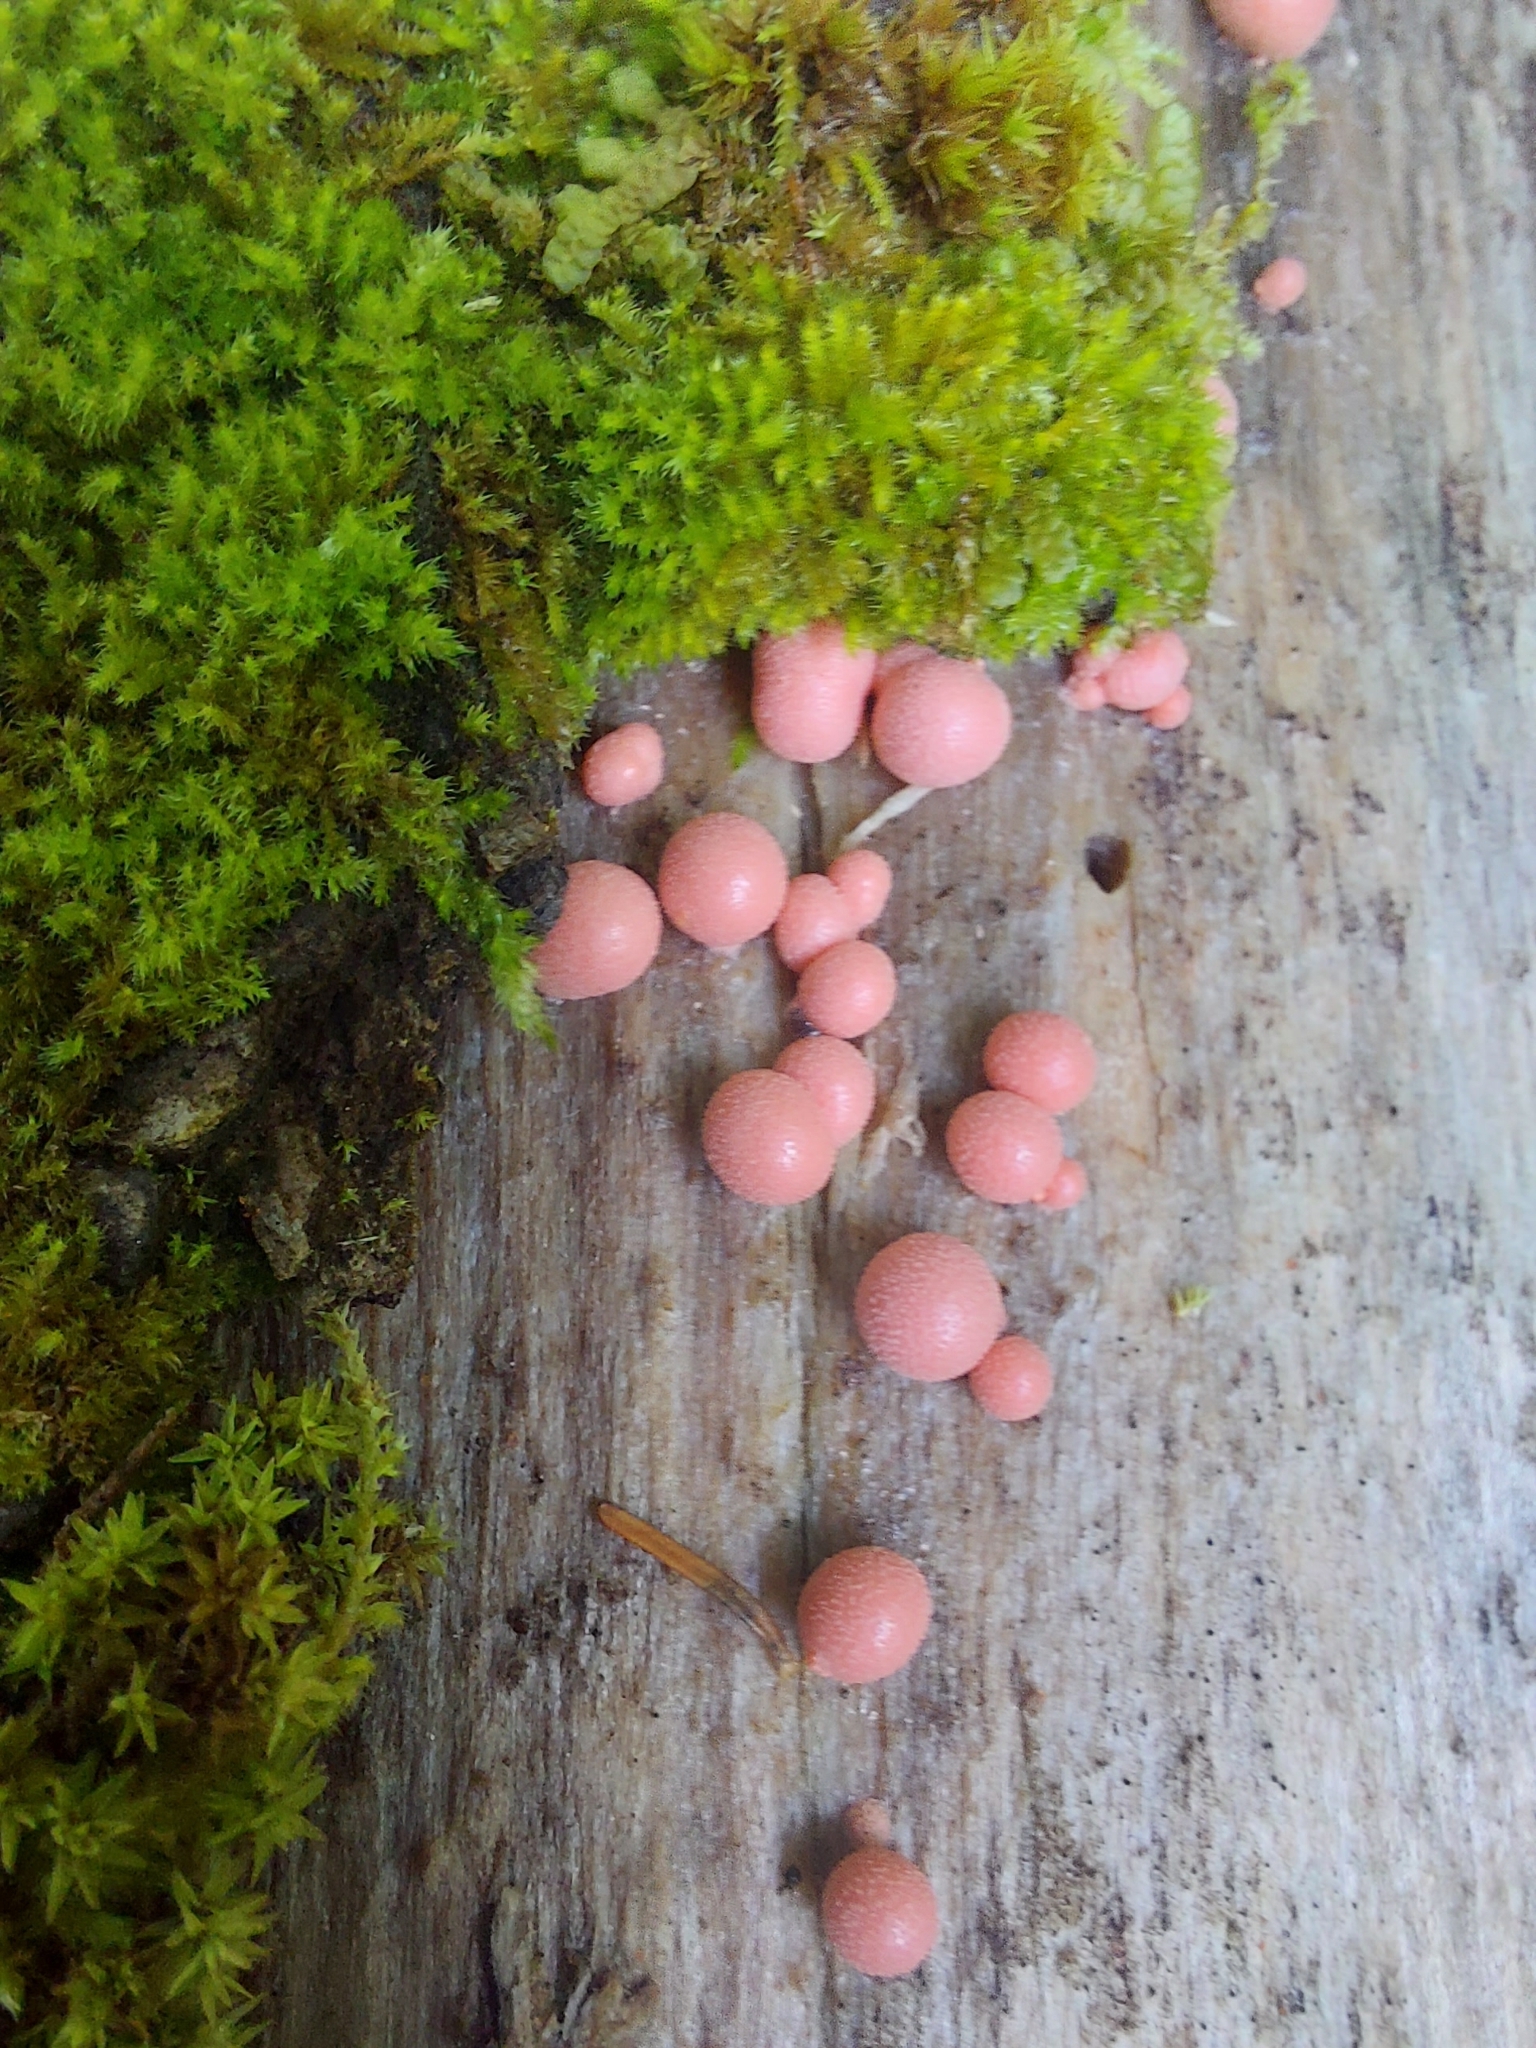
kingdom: Protozoa
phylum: Mycetozoa
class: Myxomycetes
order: Cribrariales
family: Tubiferaceae
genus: Lycogala
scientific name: Lycogala epidendrum
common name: Wolf's milk
